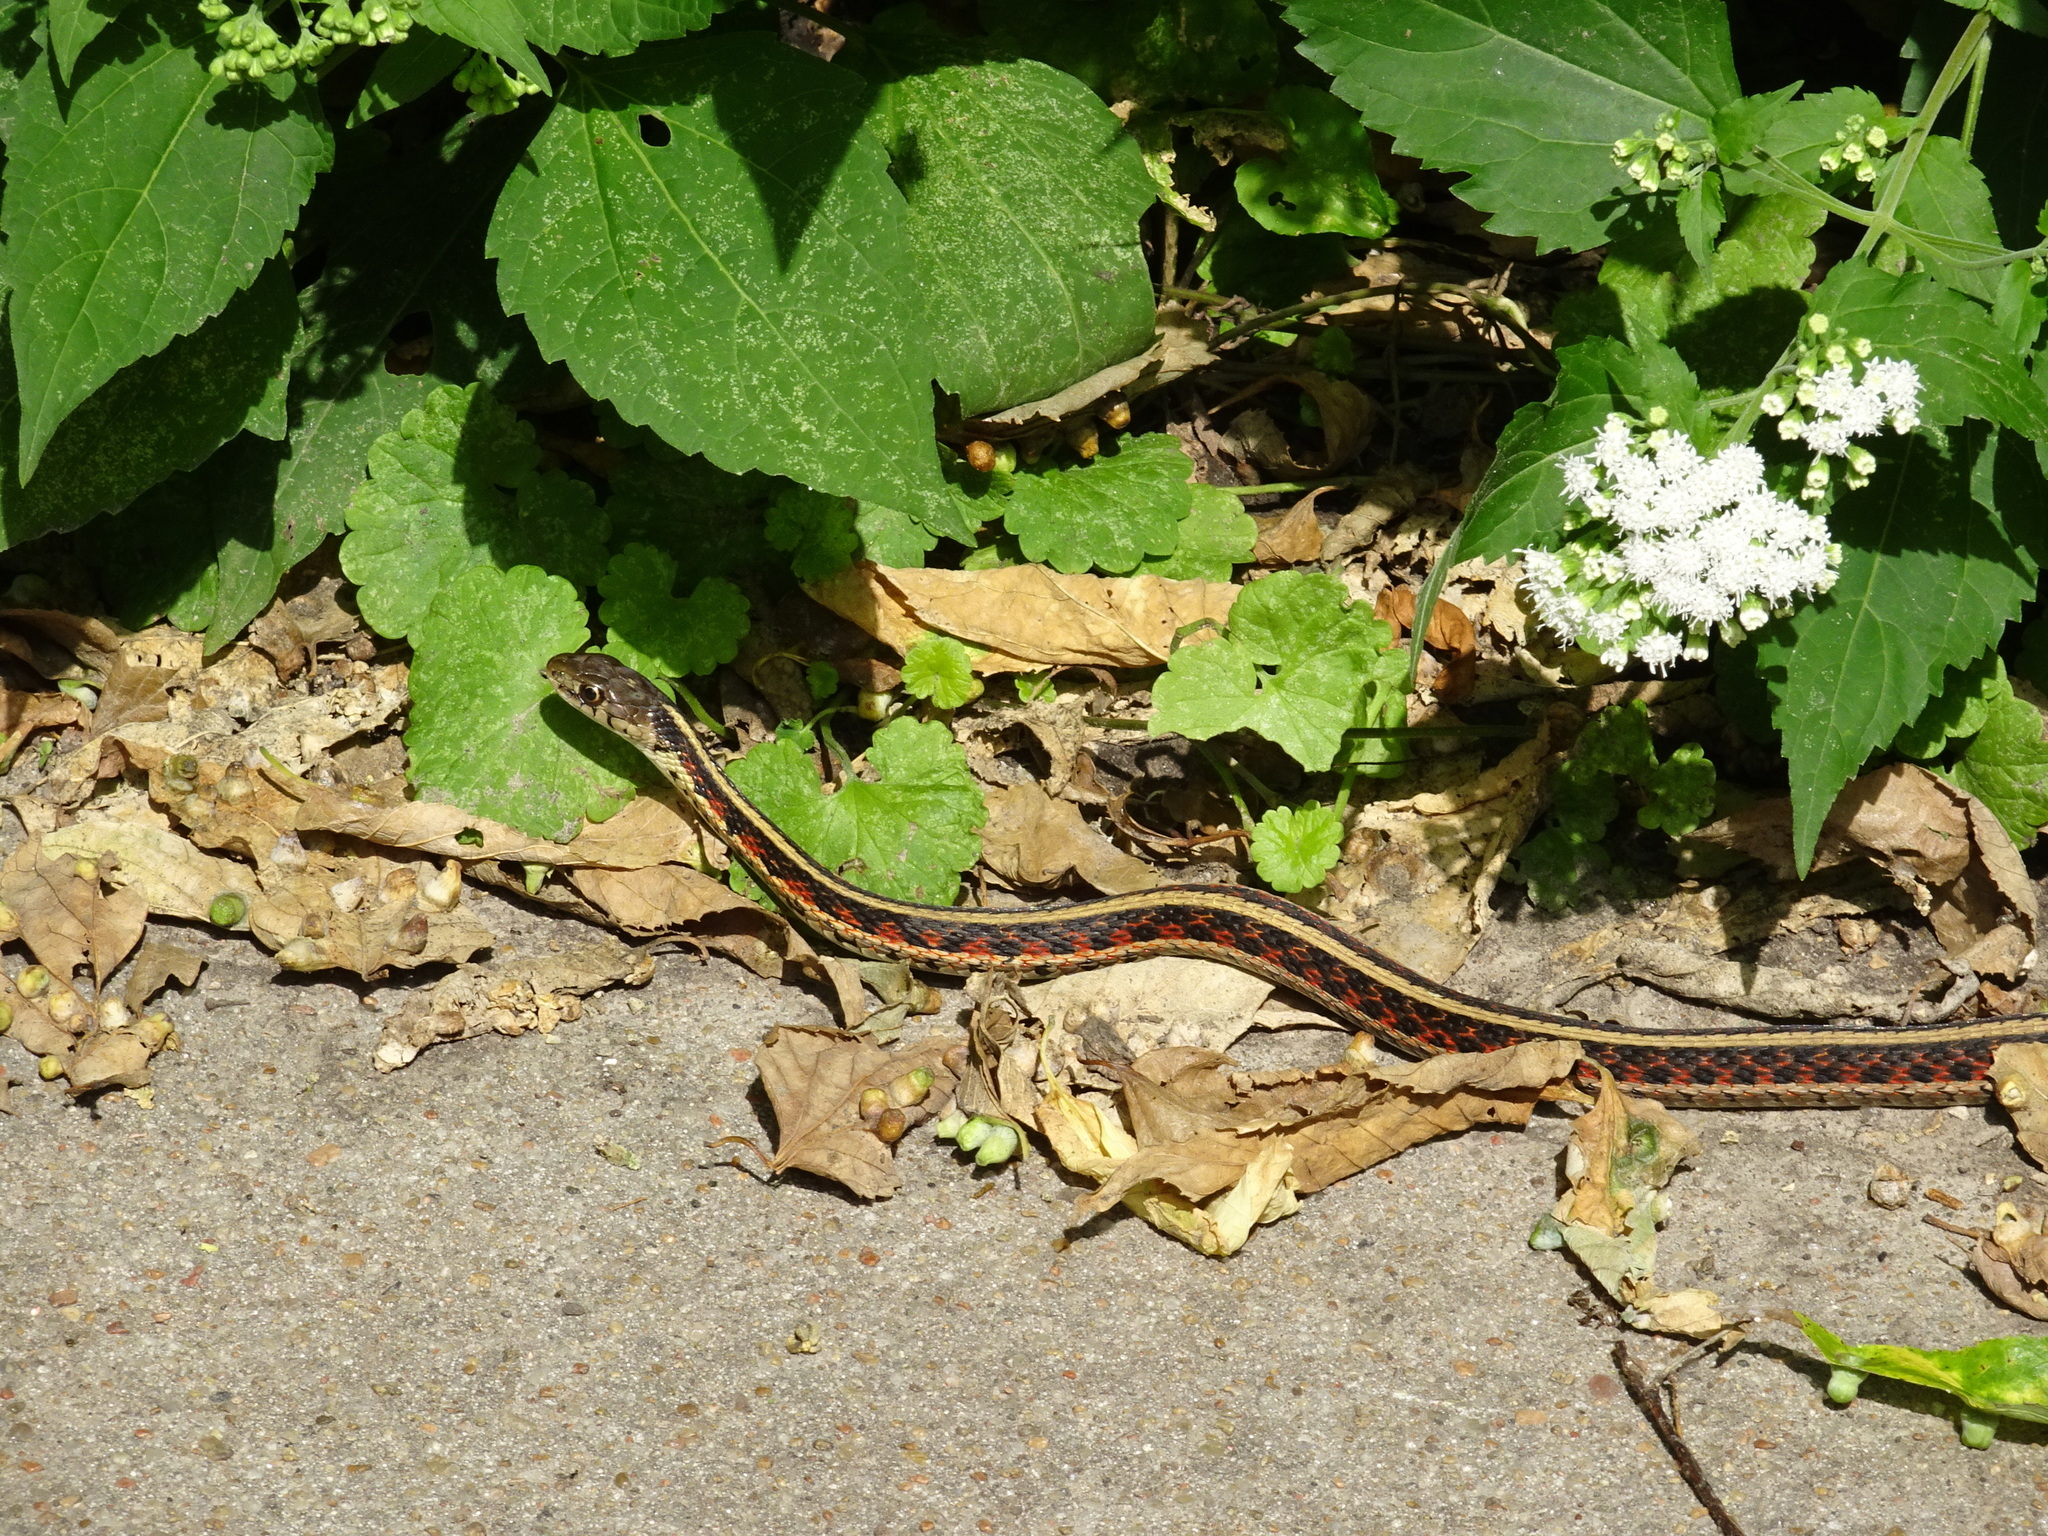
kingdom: Animalia
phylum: Chordata
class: Squamata
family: Colubridae
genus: Thamnophis
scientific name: Thamnophis sirtalis
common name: Common garter snake
